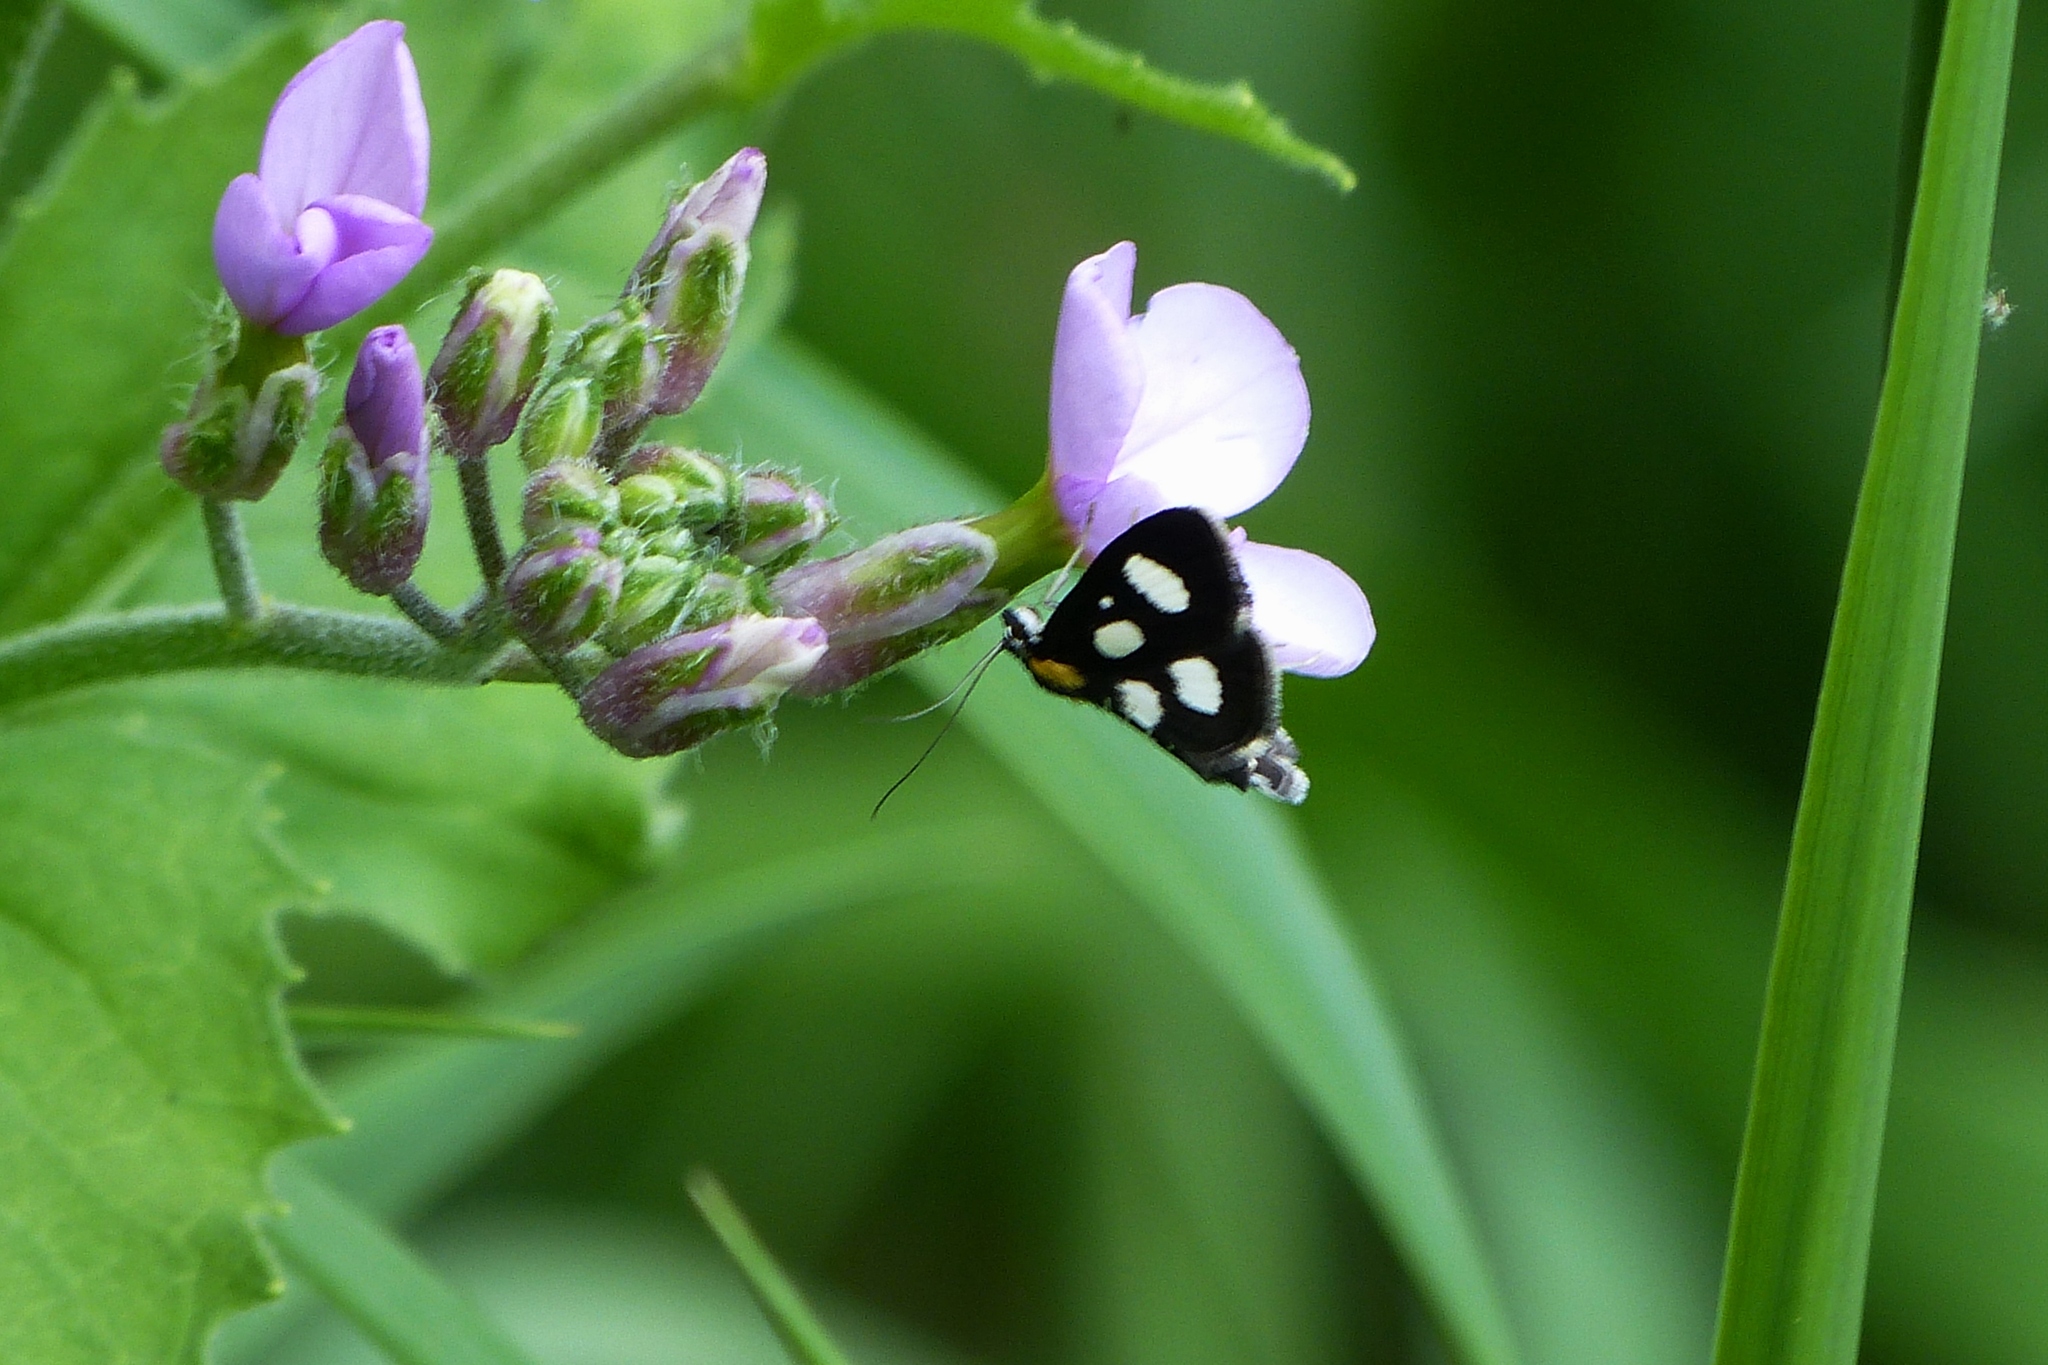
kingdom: Animalia
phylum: Arthropoda
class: Insecta
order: Lepidoptera
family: Noctuidae
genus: Alypia
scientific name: Alypia octomaculata
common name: Eight-spotted forester
